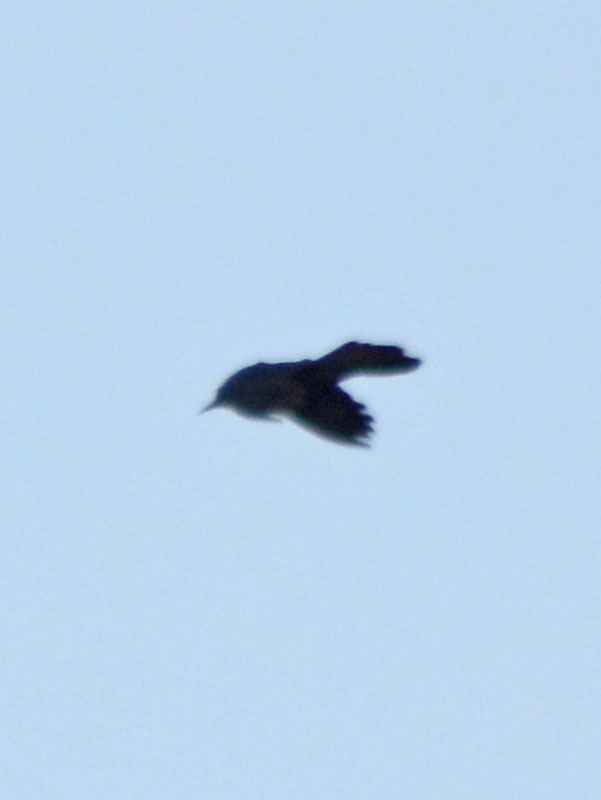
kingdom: Animalia
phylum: Chordata
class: Aves
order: Passeriformes
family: Icteridae
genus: Quiscalus
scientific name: Quiscalus mexicanus
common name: Great-tailed grackle
